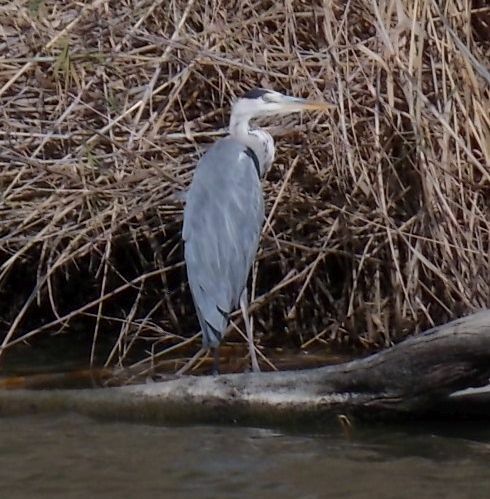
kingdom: Animalia
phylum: Chordata
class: Aves
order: Pelecaniformes
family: Ardeidae
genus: Ardea
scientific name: Ardea cinerea
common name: Grey heron
